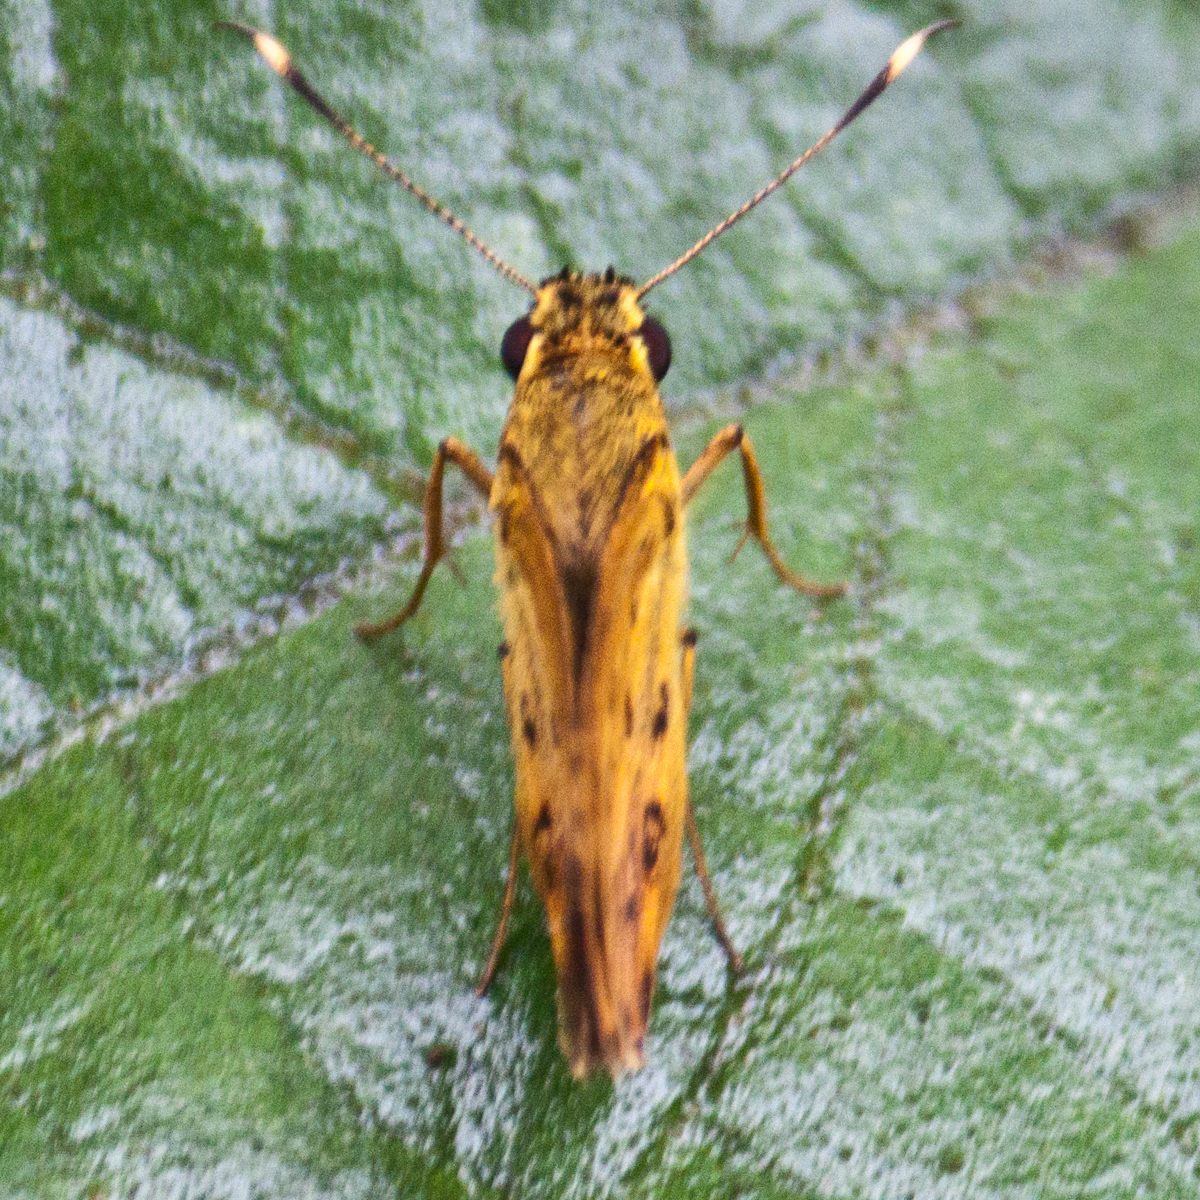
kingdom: Animalia
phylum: Arthropoda
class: Insecta
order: Lepidoptera
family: Hesperiidae
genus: Salanoemia
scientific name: Salanoemia tavoyana
